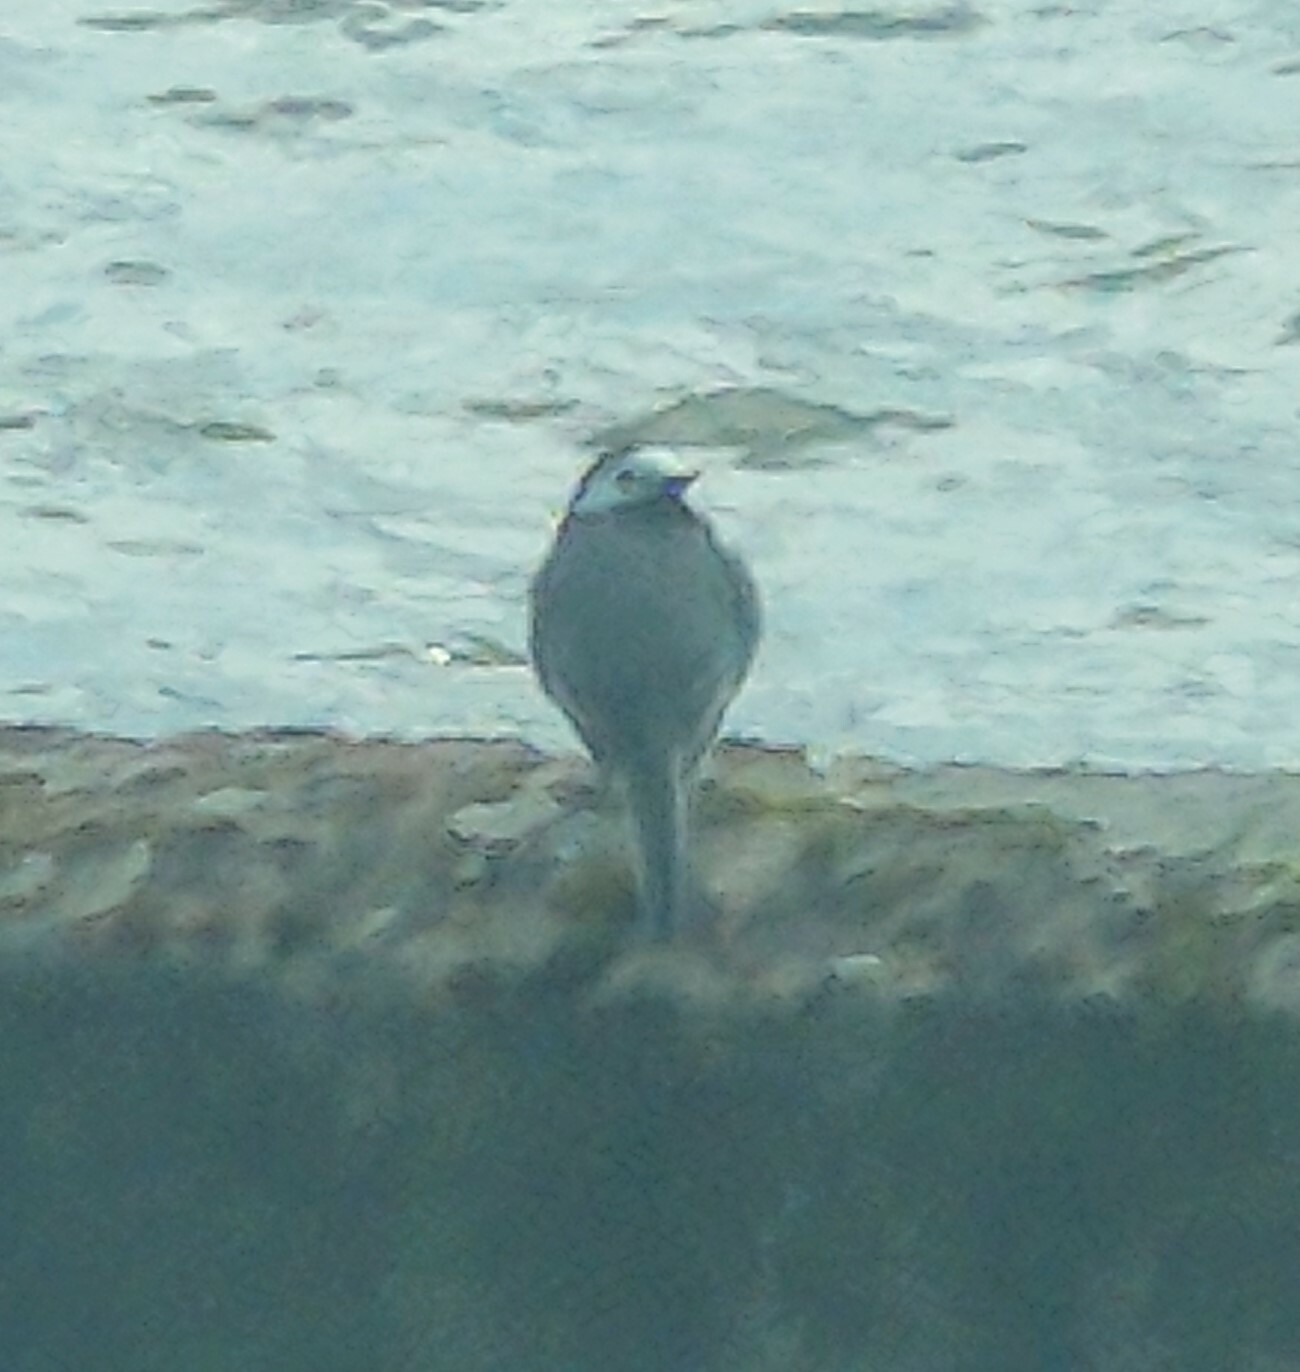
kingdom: Animalia
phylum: Chordata
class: Aves
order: Passeriformes
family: Motacillidae
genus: Motacilla
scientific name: Motacilla alba
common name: White wagtail
